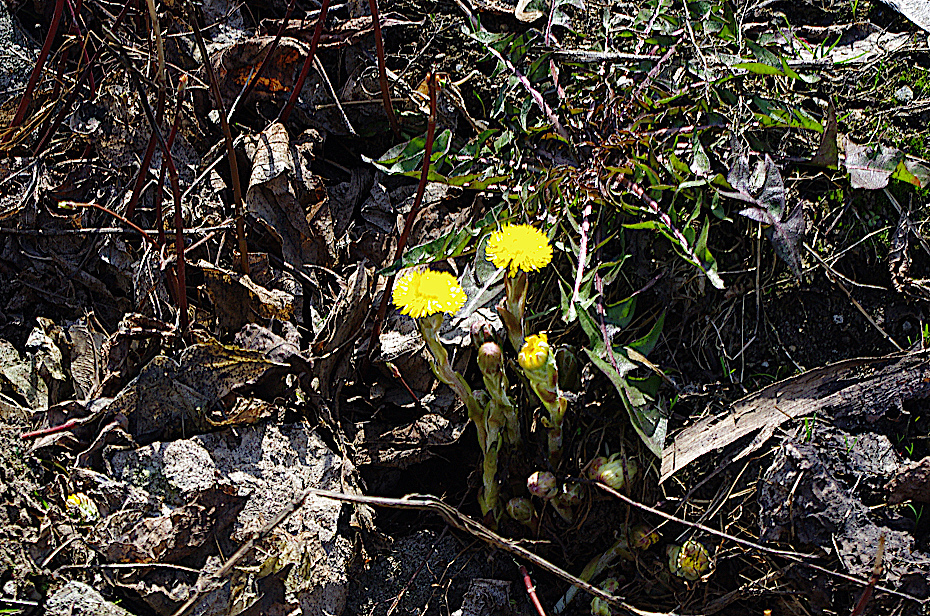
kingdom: Plantae
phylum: Tracheophyta
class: Magnoliopsida
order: Asterales
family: Asteraceae
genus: Tussilago
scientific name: Tussilago farfara
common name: Coltsfoot
